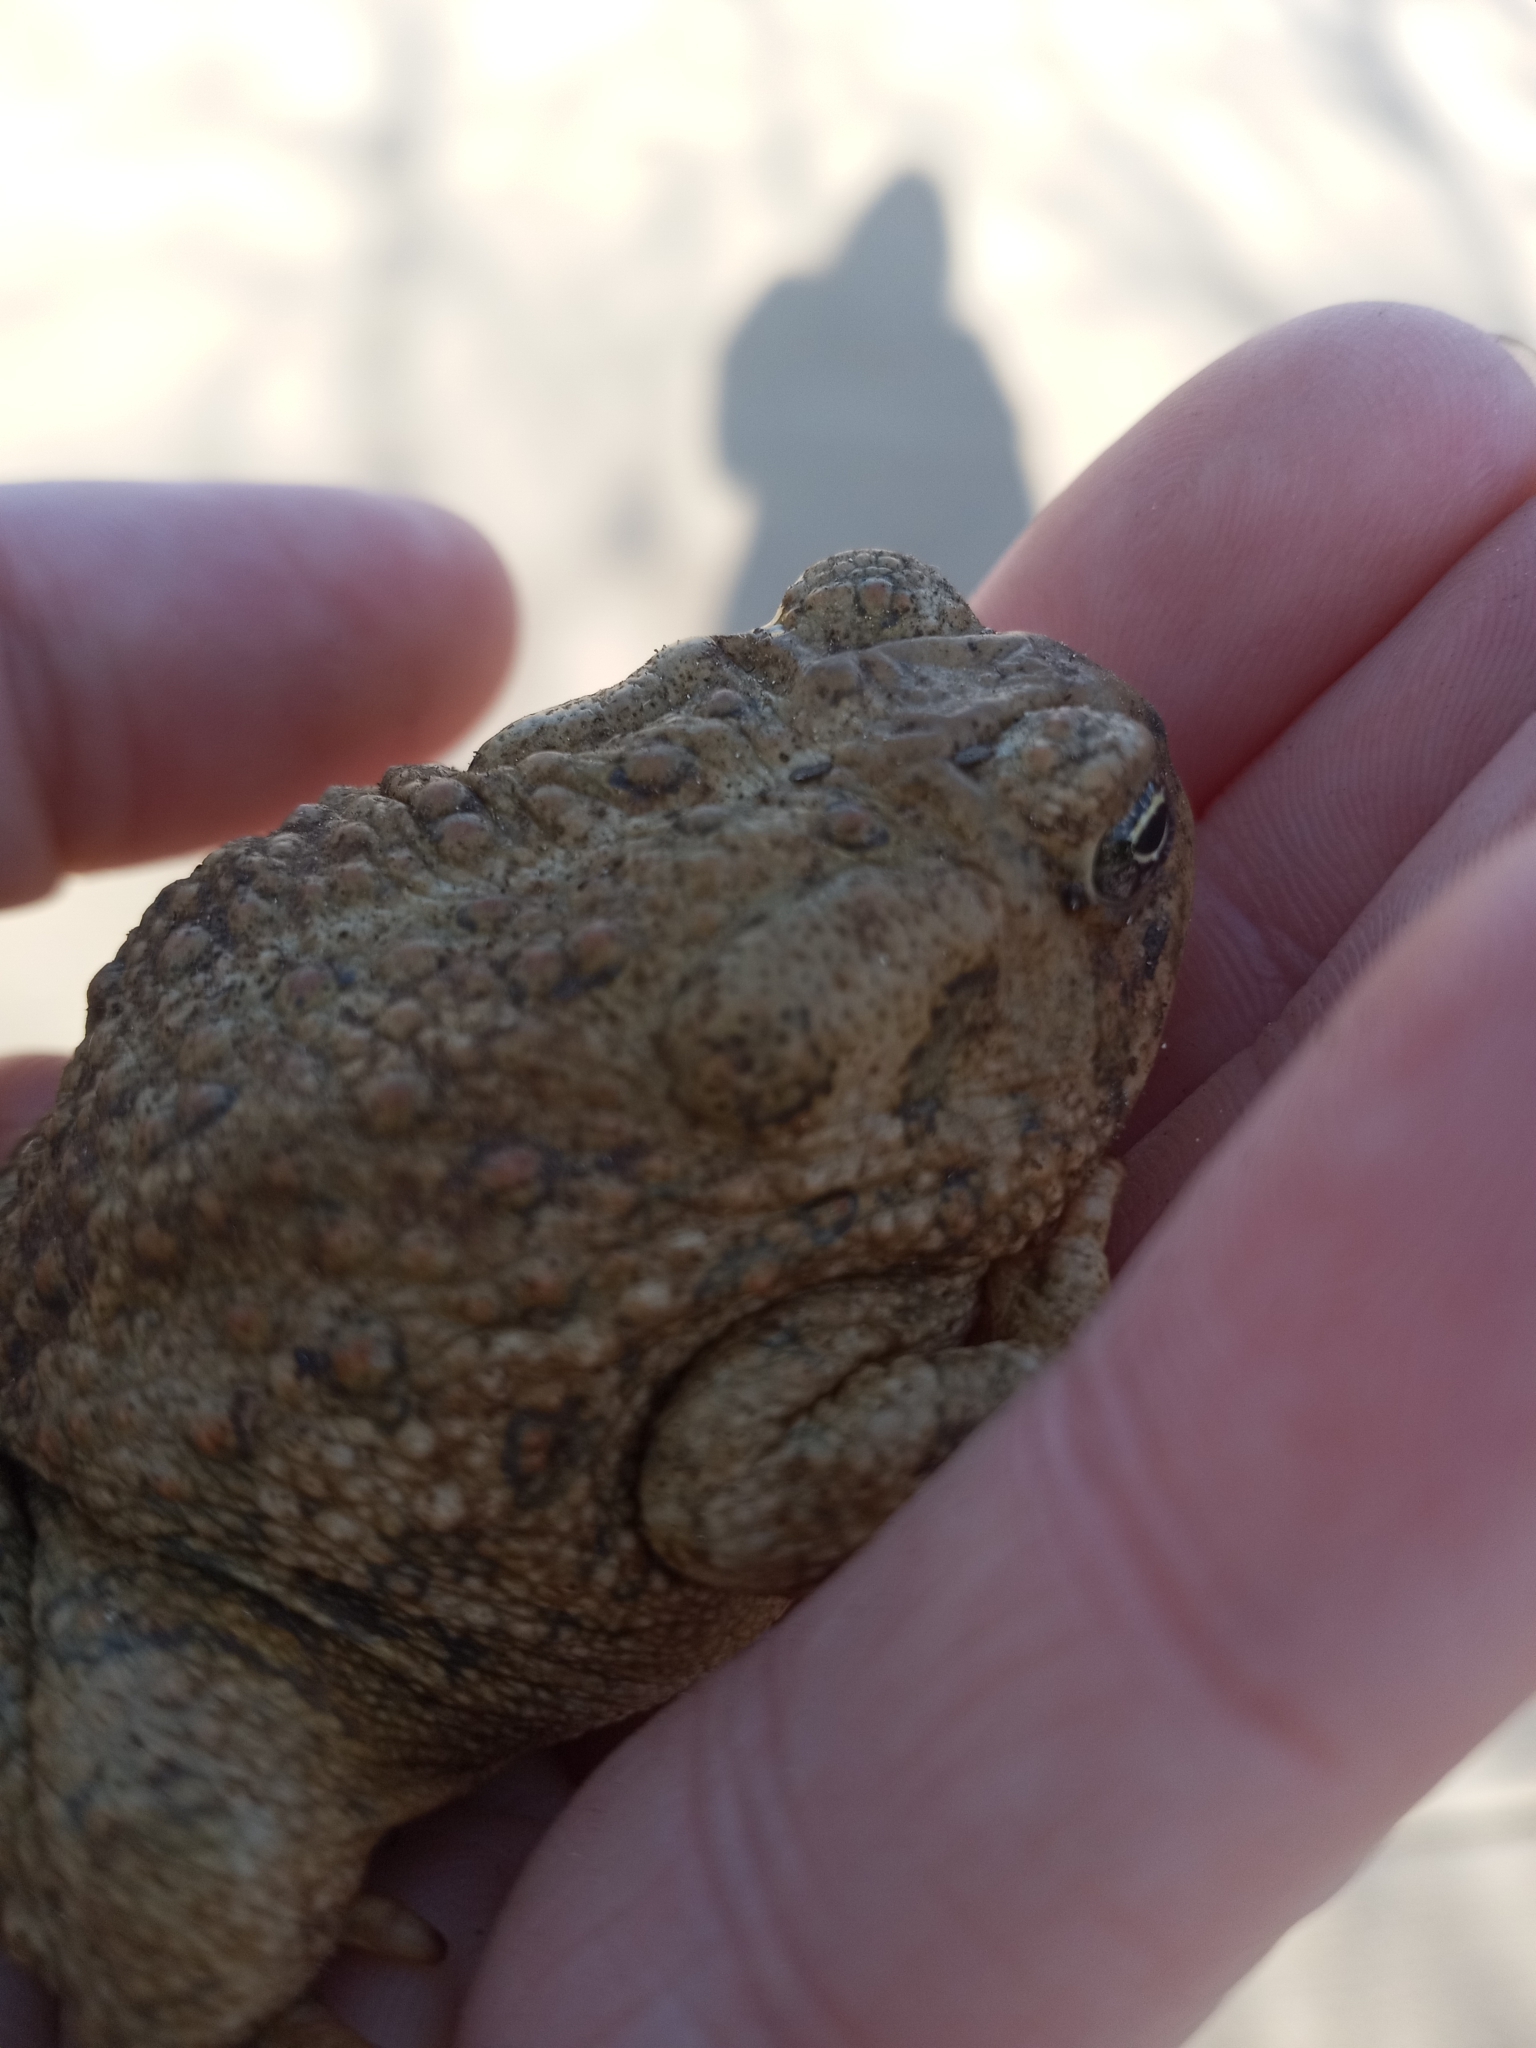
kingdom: Animalia
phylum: Chordata
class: Amphibia
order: Anura
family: Bufonidae
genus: Anaxyrus
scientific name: Anaxyrus woodhousii
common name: Woodhouse's toad
